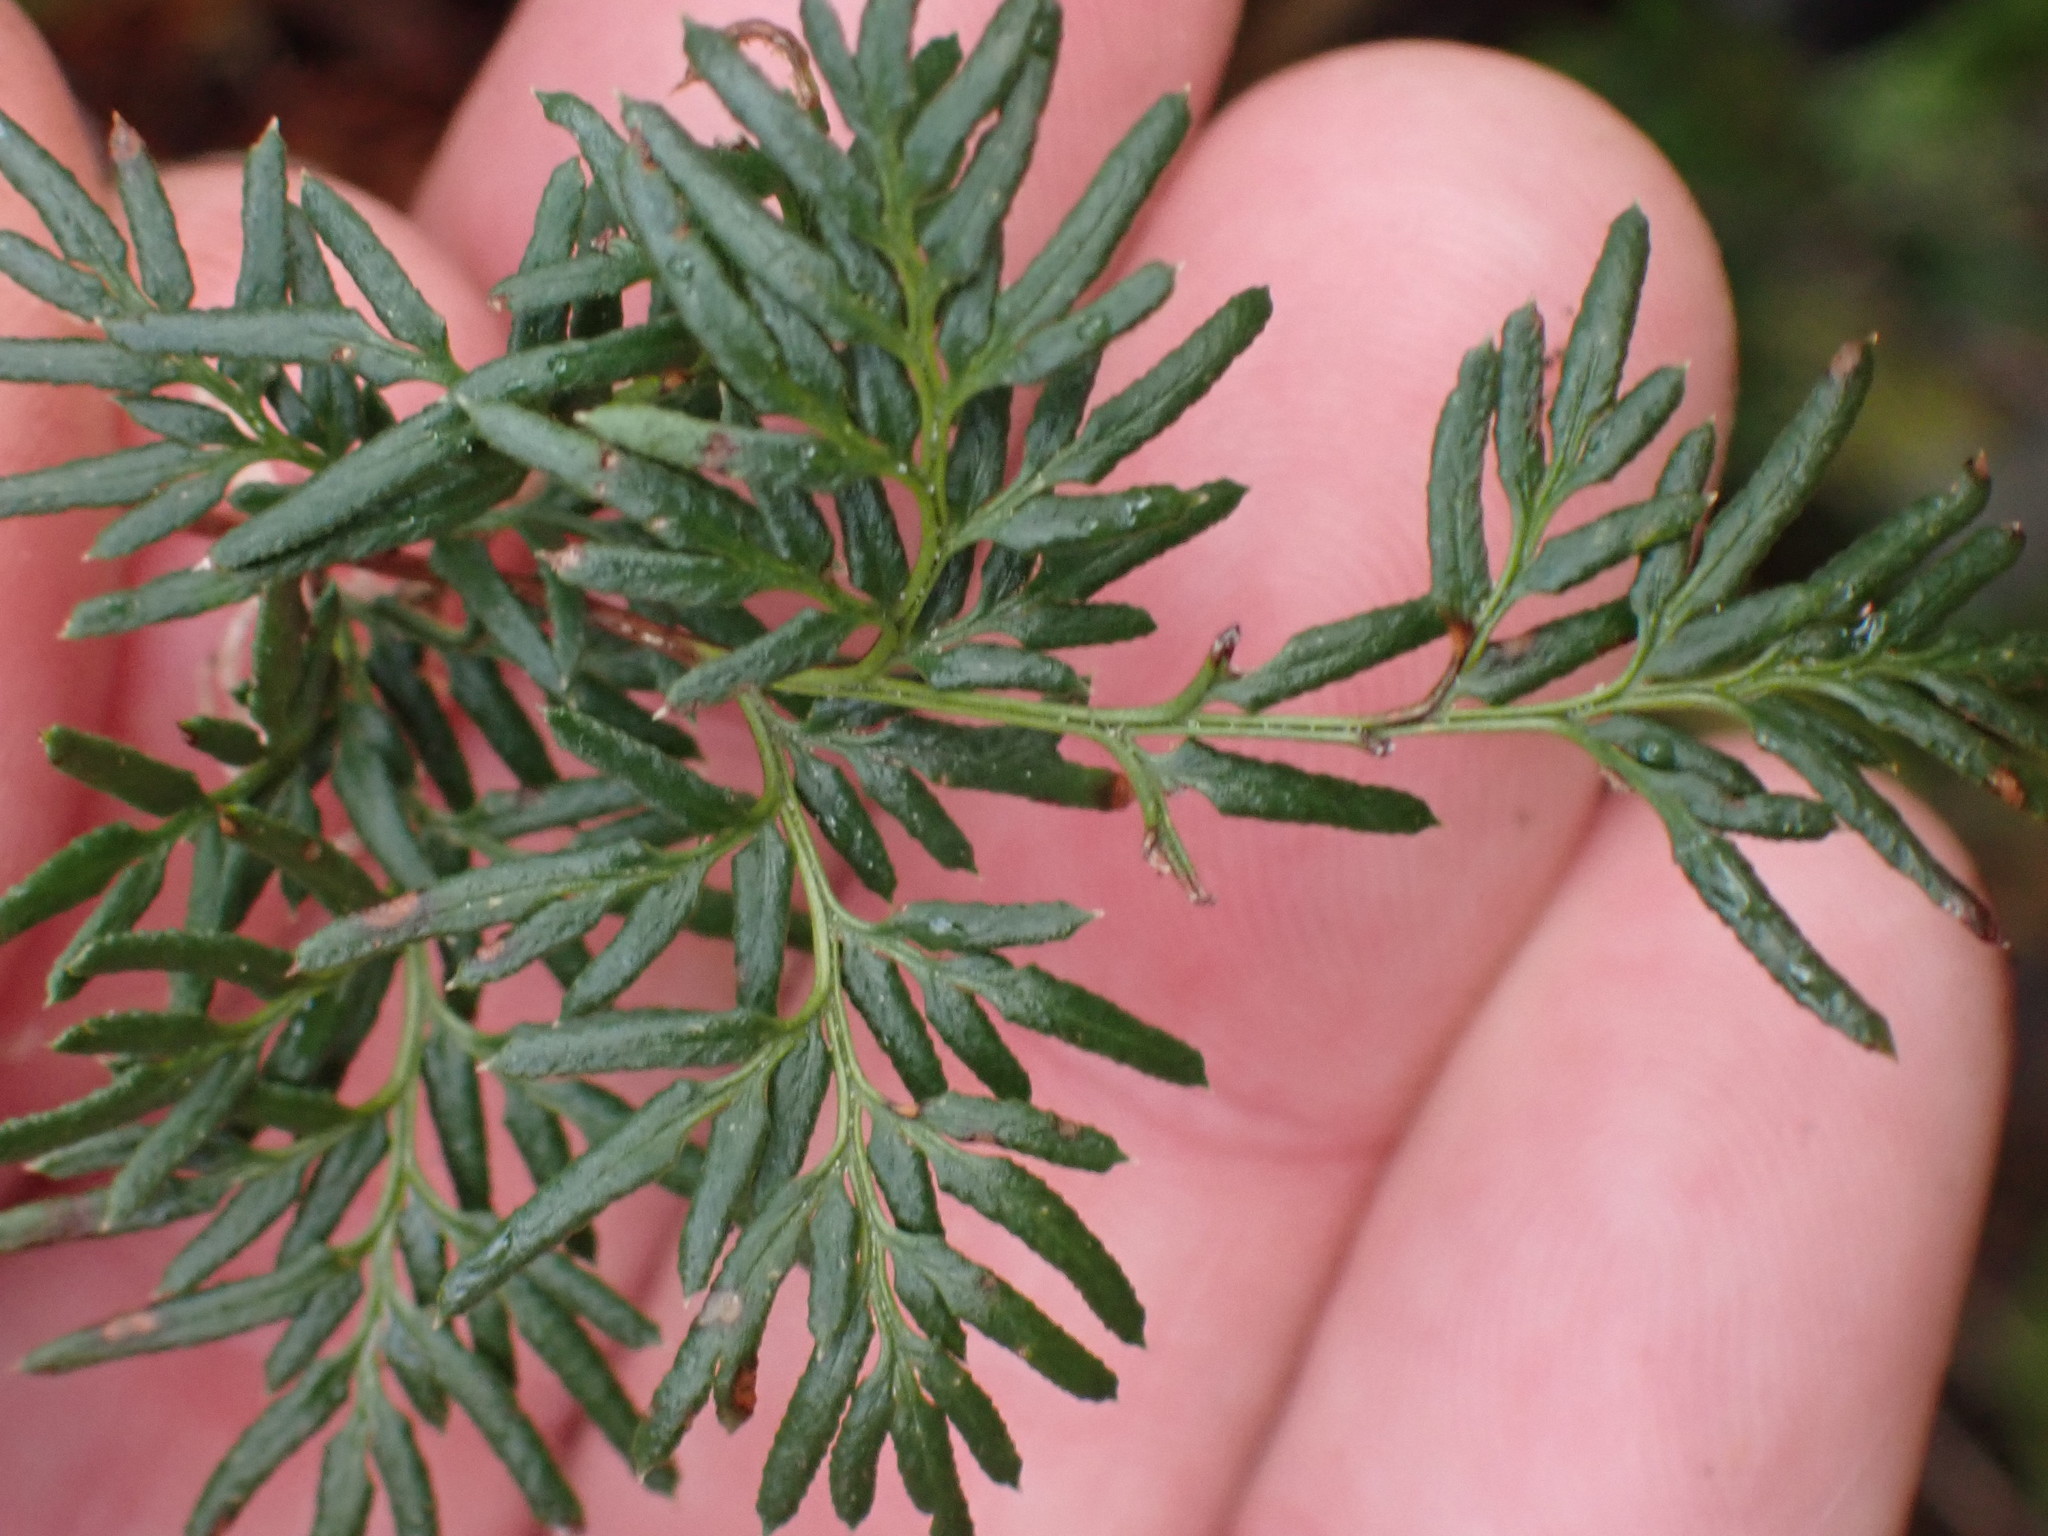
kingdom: Plantae
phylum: Tracheophyta
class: Polypodiopsida
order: Polypodiales
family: Pteridaceae
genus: Aspidotis
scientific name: Aspidotis densa
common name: Indian's dream
